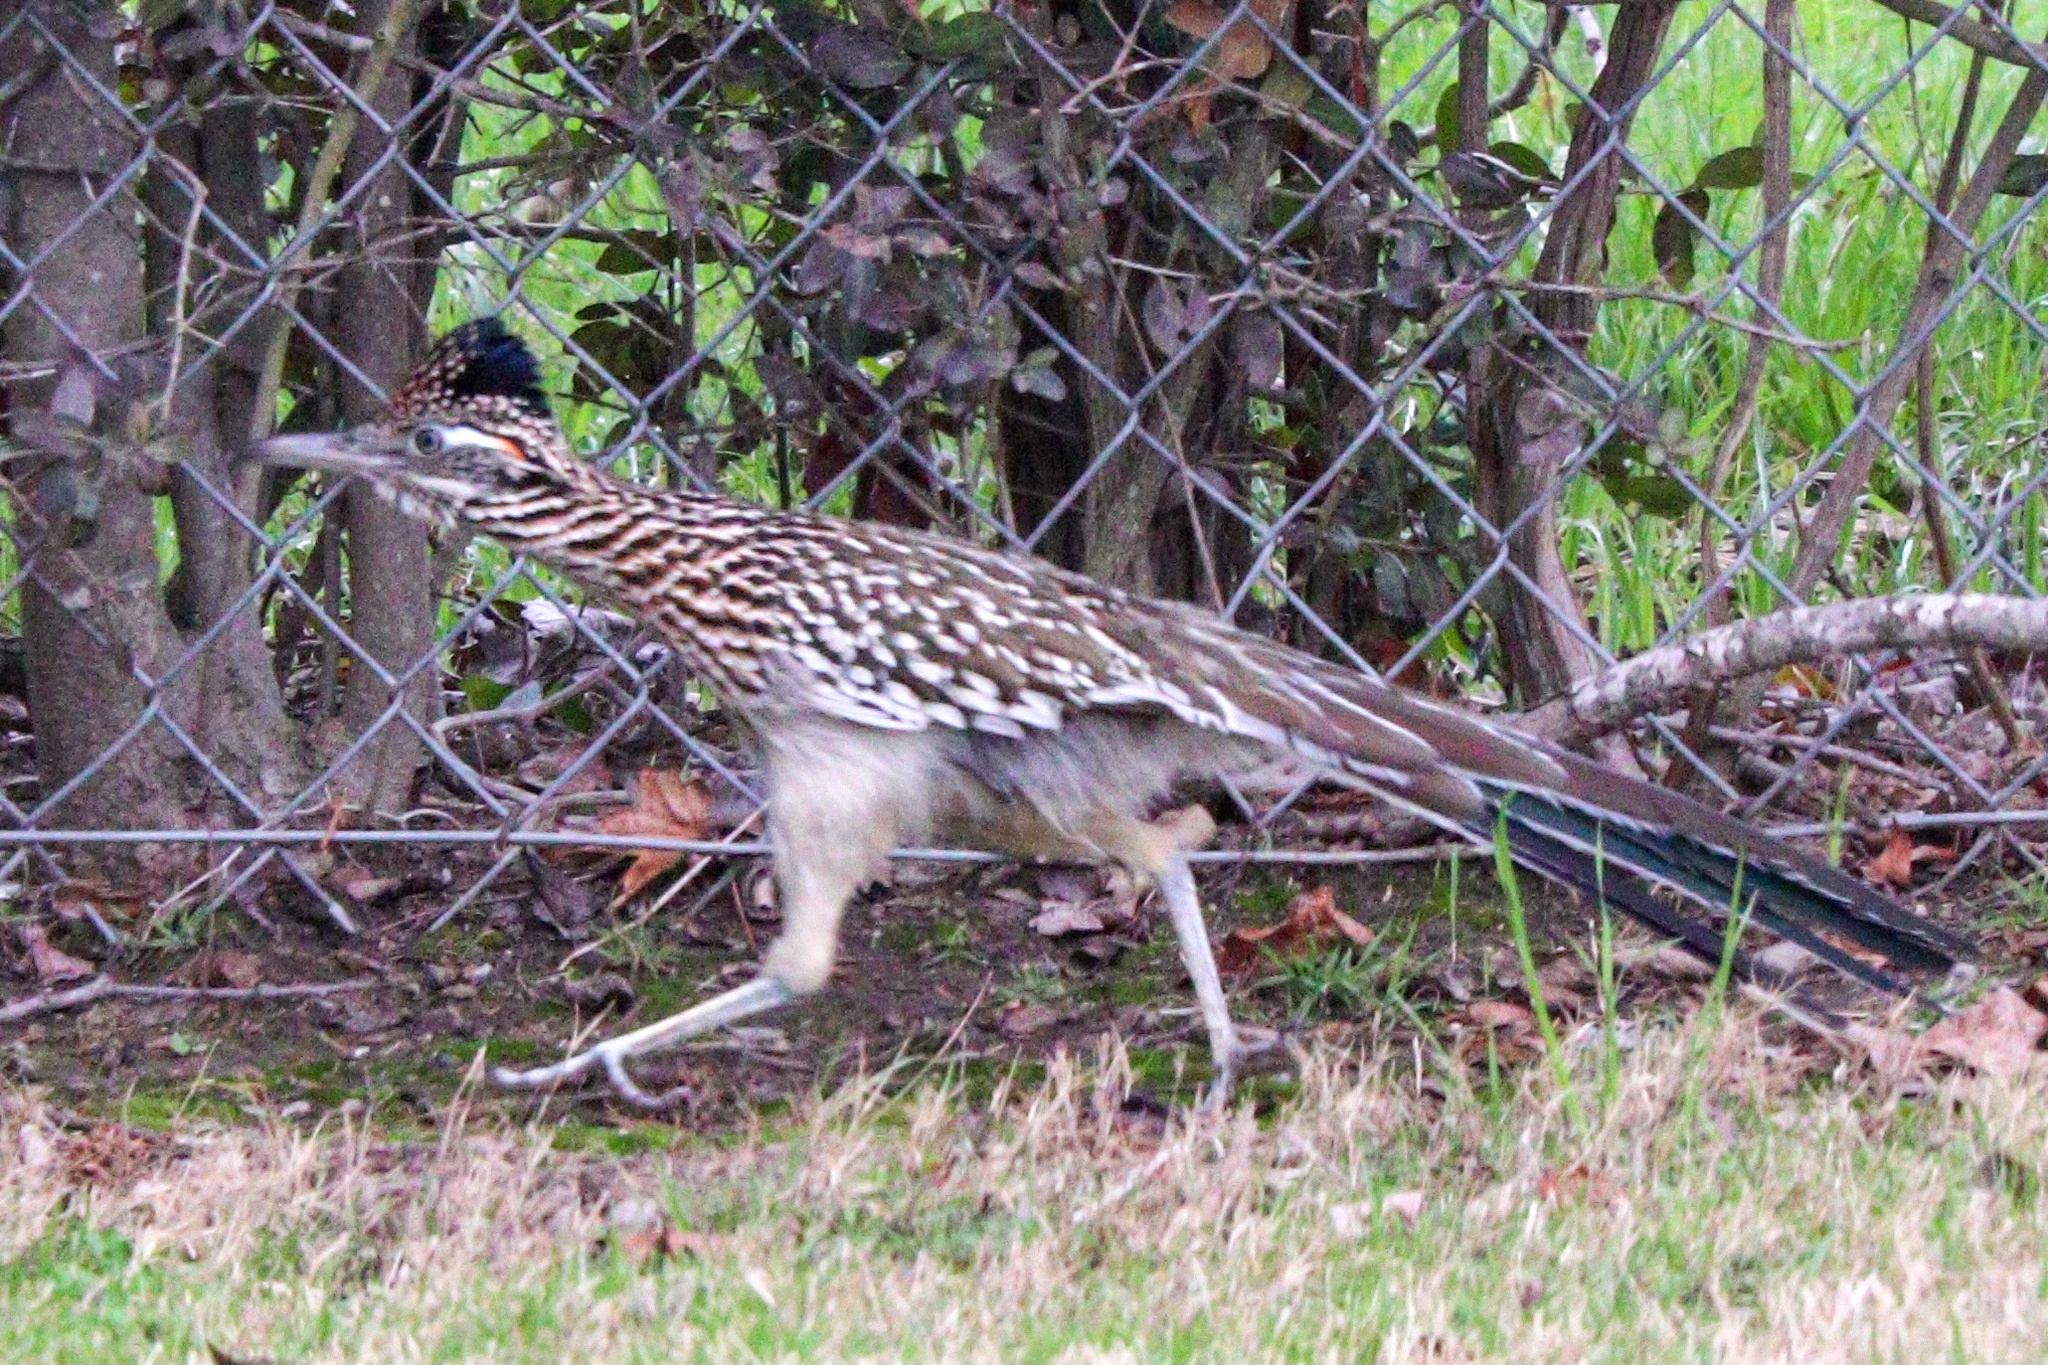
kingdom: Animalia
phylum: Chordata
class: Aves
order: Cuculiformes
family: Cuculidae
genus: Geococcyx
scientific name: Geococcyx californianus
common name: Greater roadrunner
